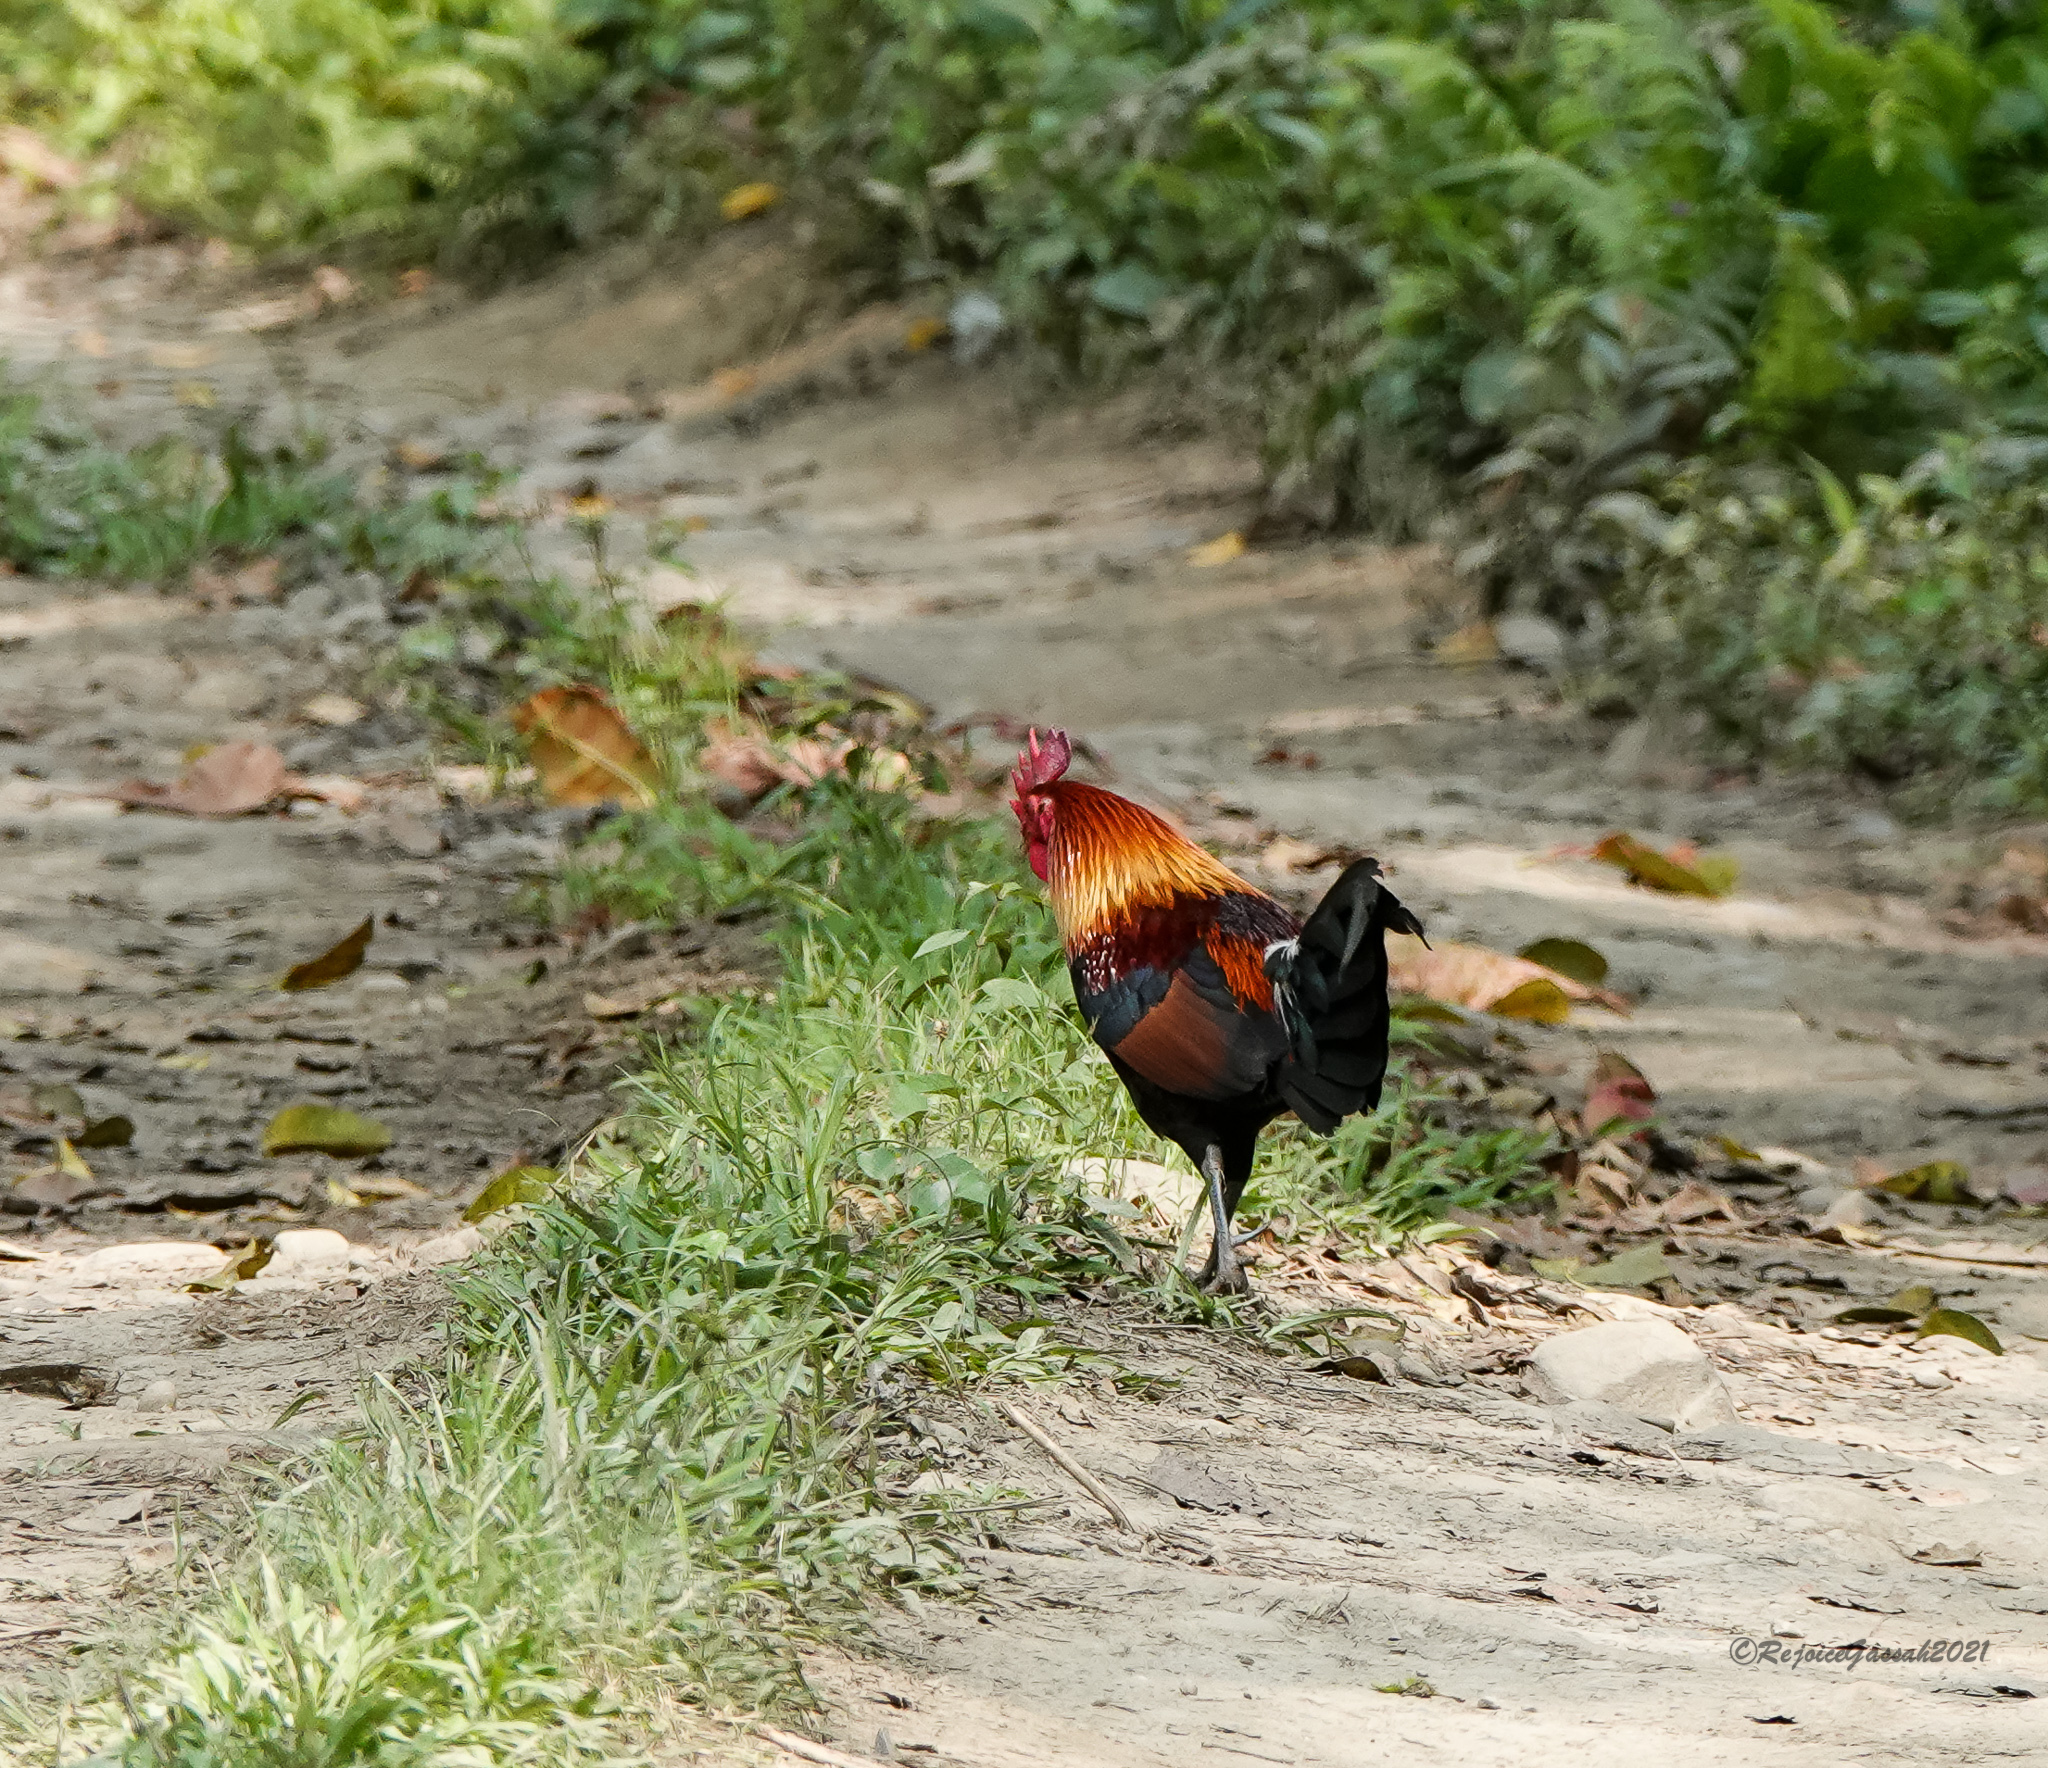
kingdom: Animalia
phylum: Chordata
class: Aves
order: Galliformes
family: Phasianidae
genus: Gallus
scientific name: Gallus gallus
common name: Red junglefowl
